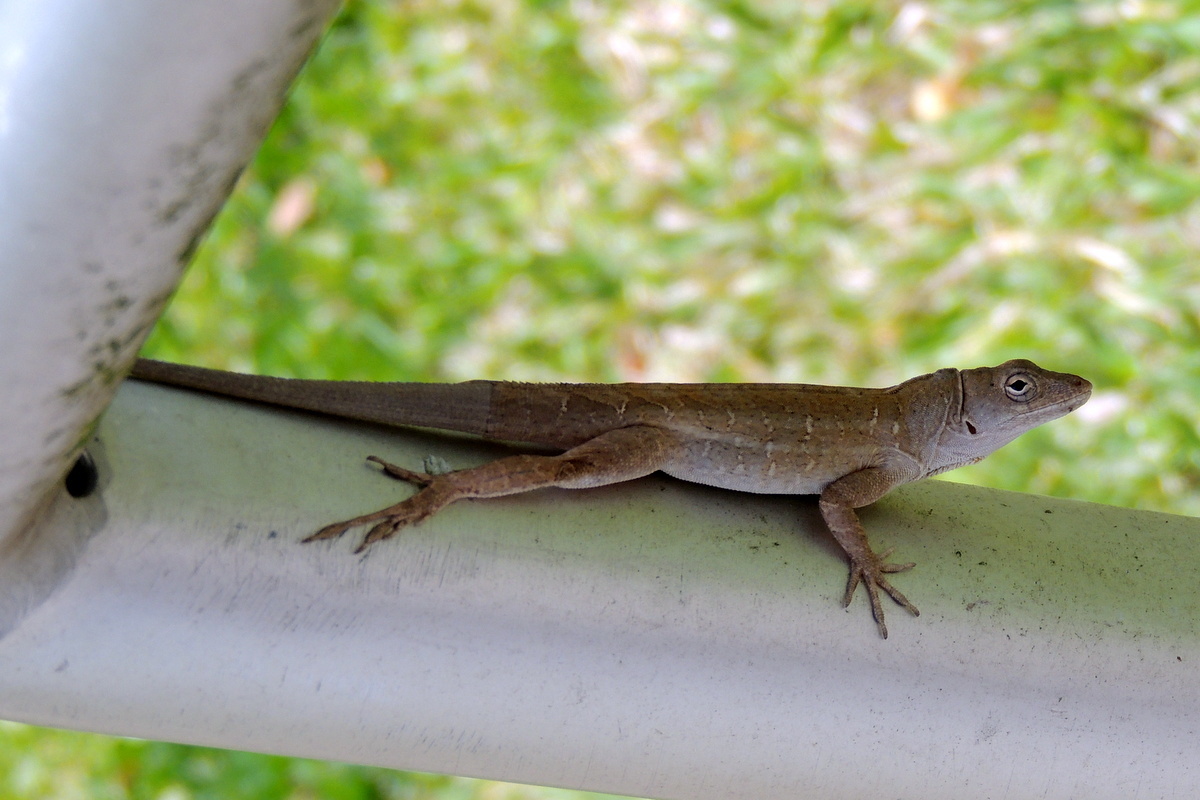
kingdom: Animalia
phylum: Chordata
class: Squamata
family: Dactyloidae
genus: Anolis
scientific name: Anolis sagrei
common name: Brown anole
